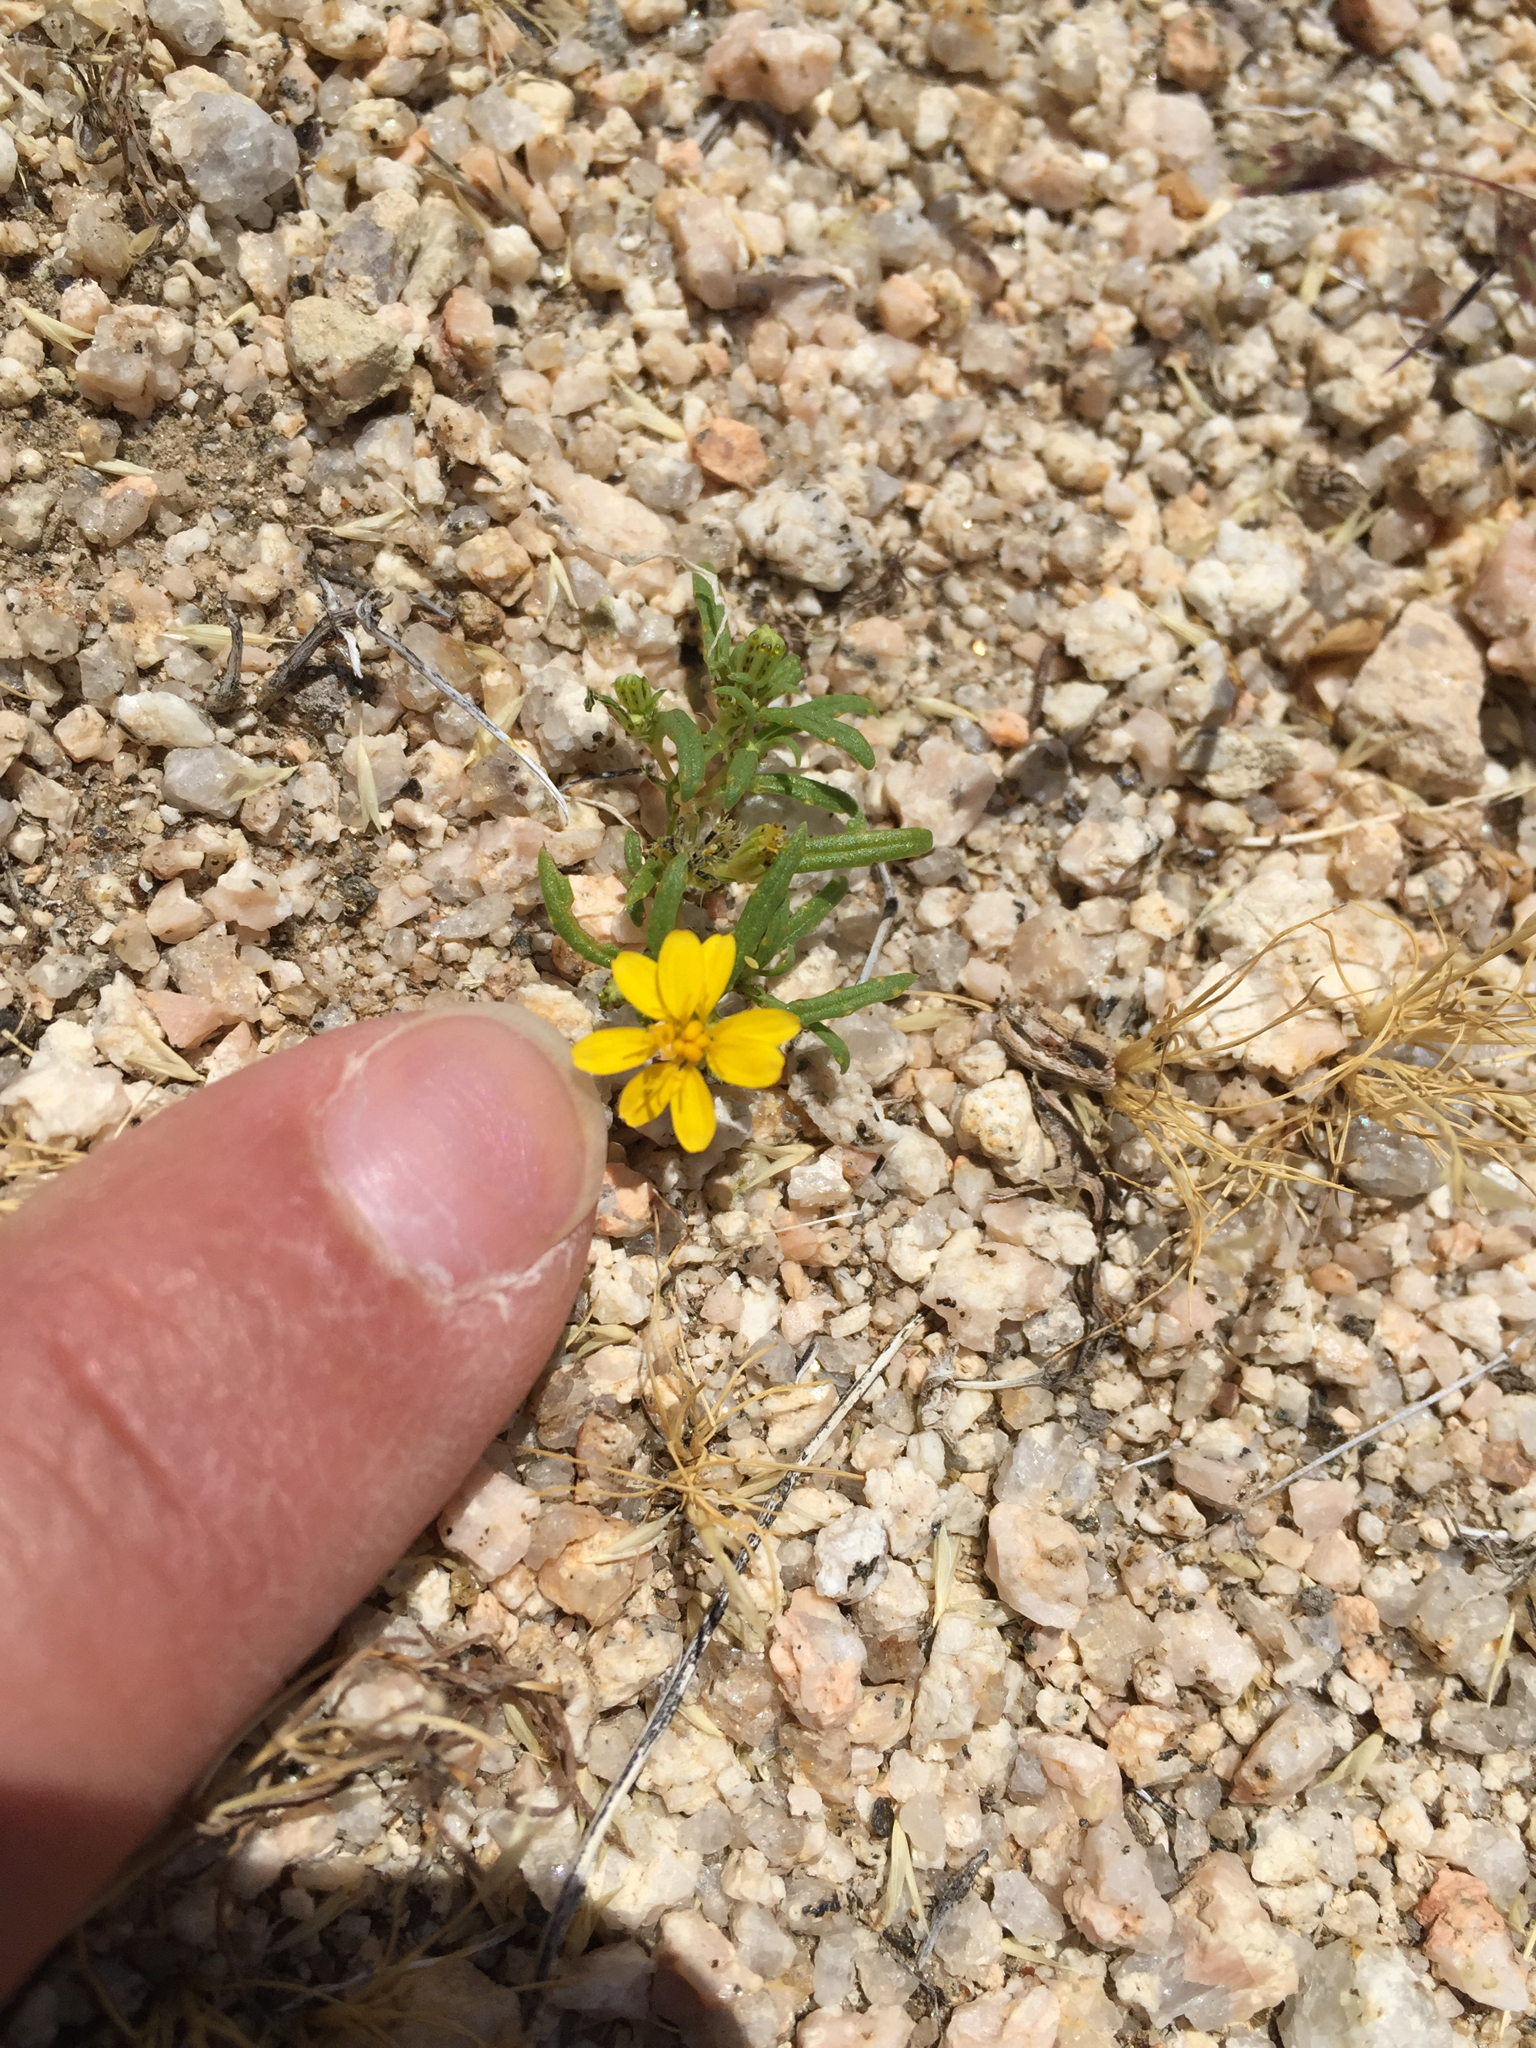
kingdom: Plantae
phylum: Tracheophyta
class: Magnoliopsida
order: Asterales
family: Asteraceae
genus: Pectis
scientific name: Pectis papposa
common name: Many-bristle chinchweed
